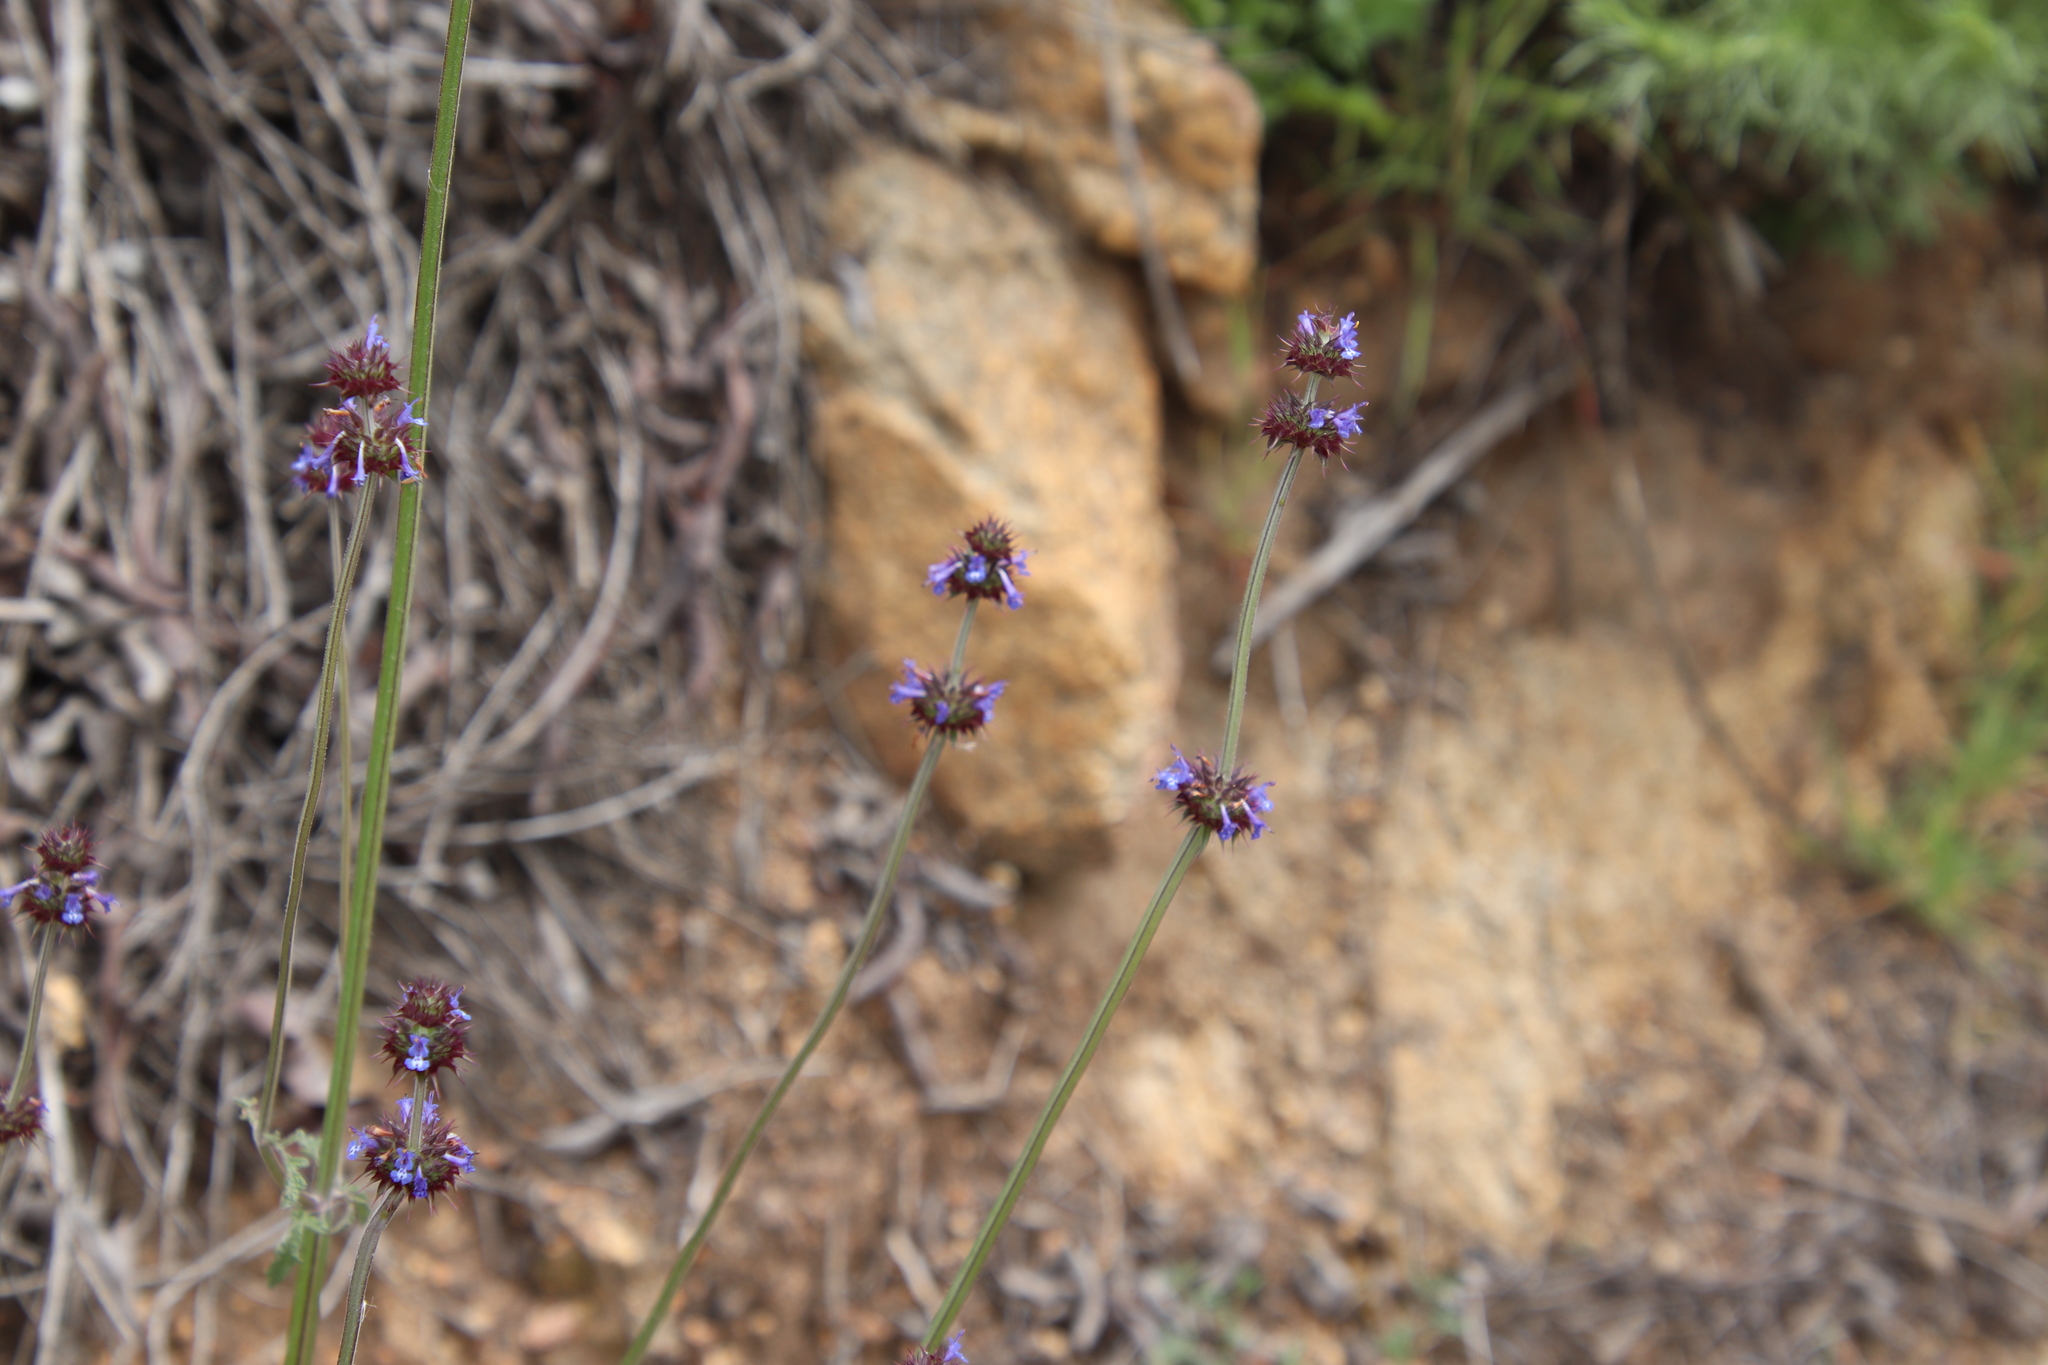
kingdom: Plantae
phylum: Tracheophyta
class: Magnoliopsida
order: Lamiales
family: Lamiaceae
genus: Salvia
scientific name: Salvia columbariae
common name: Chia
